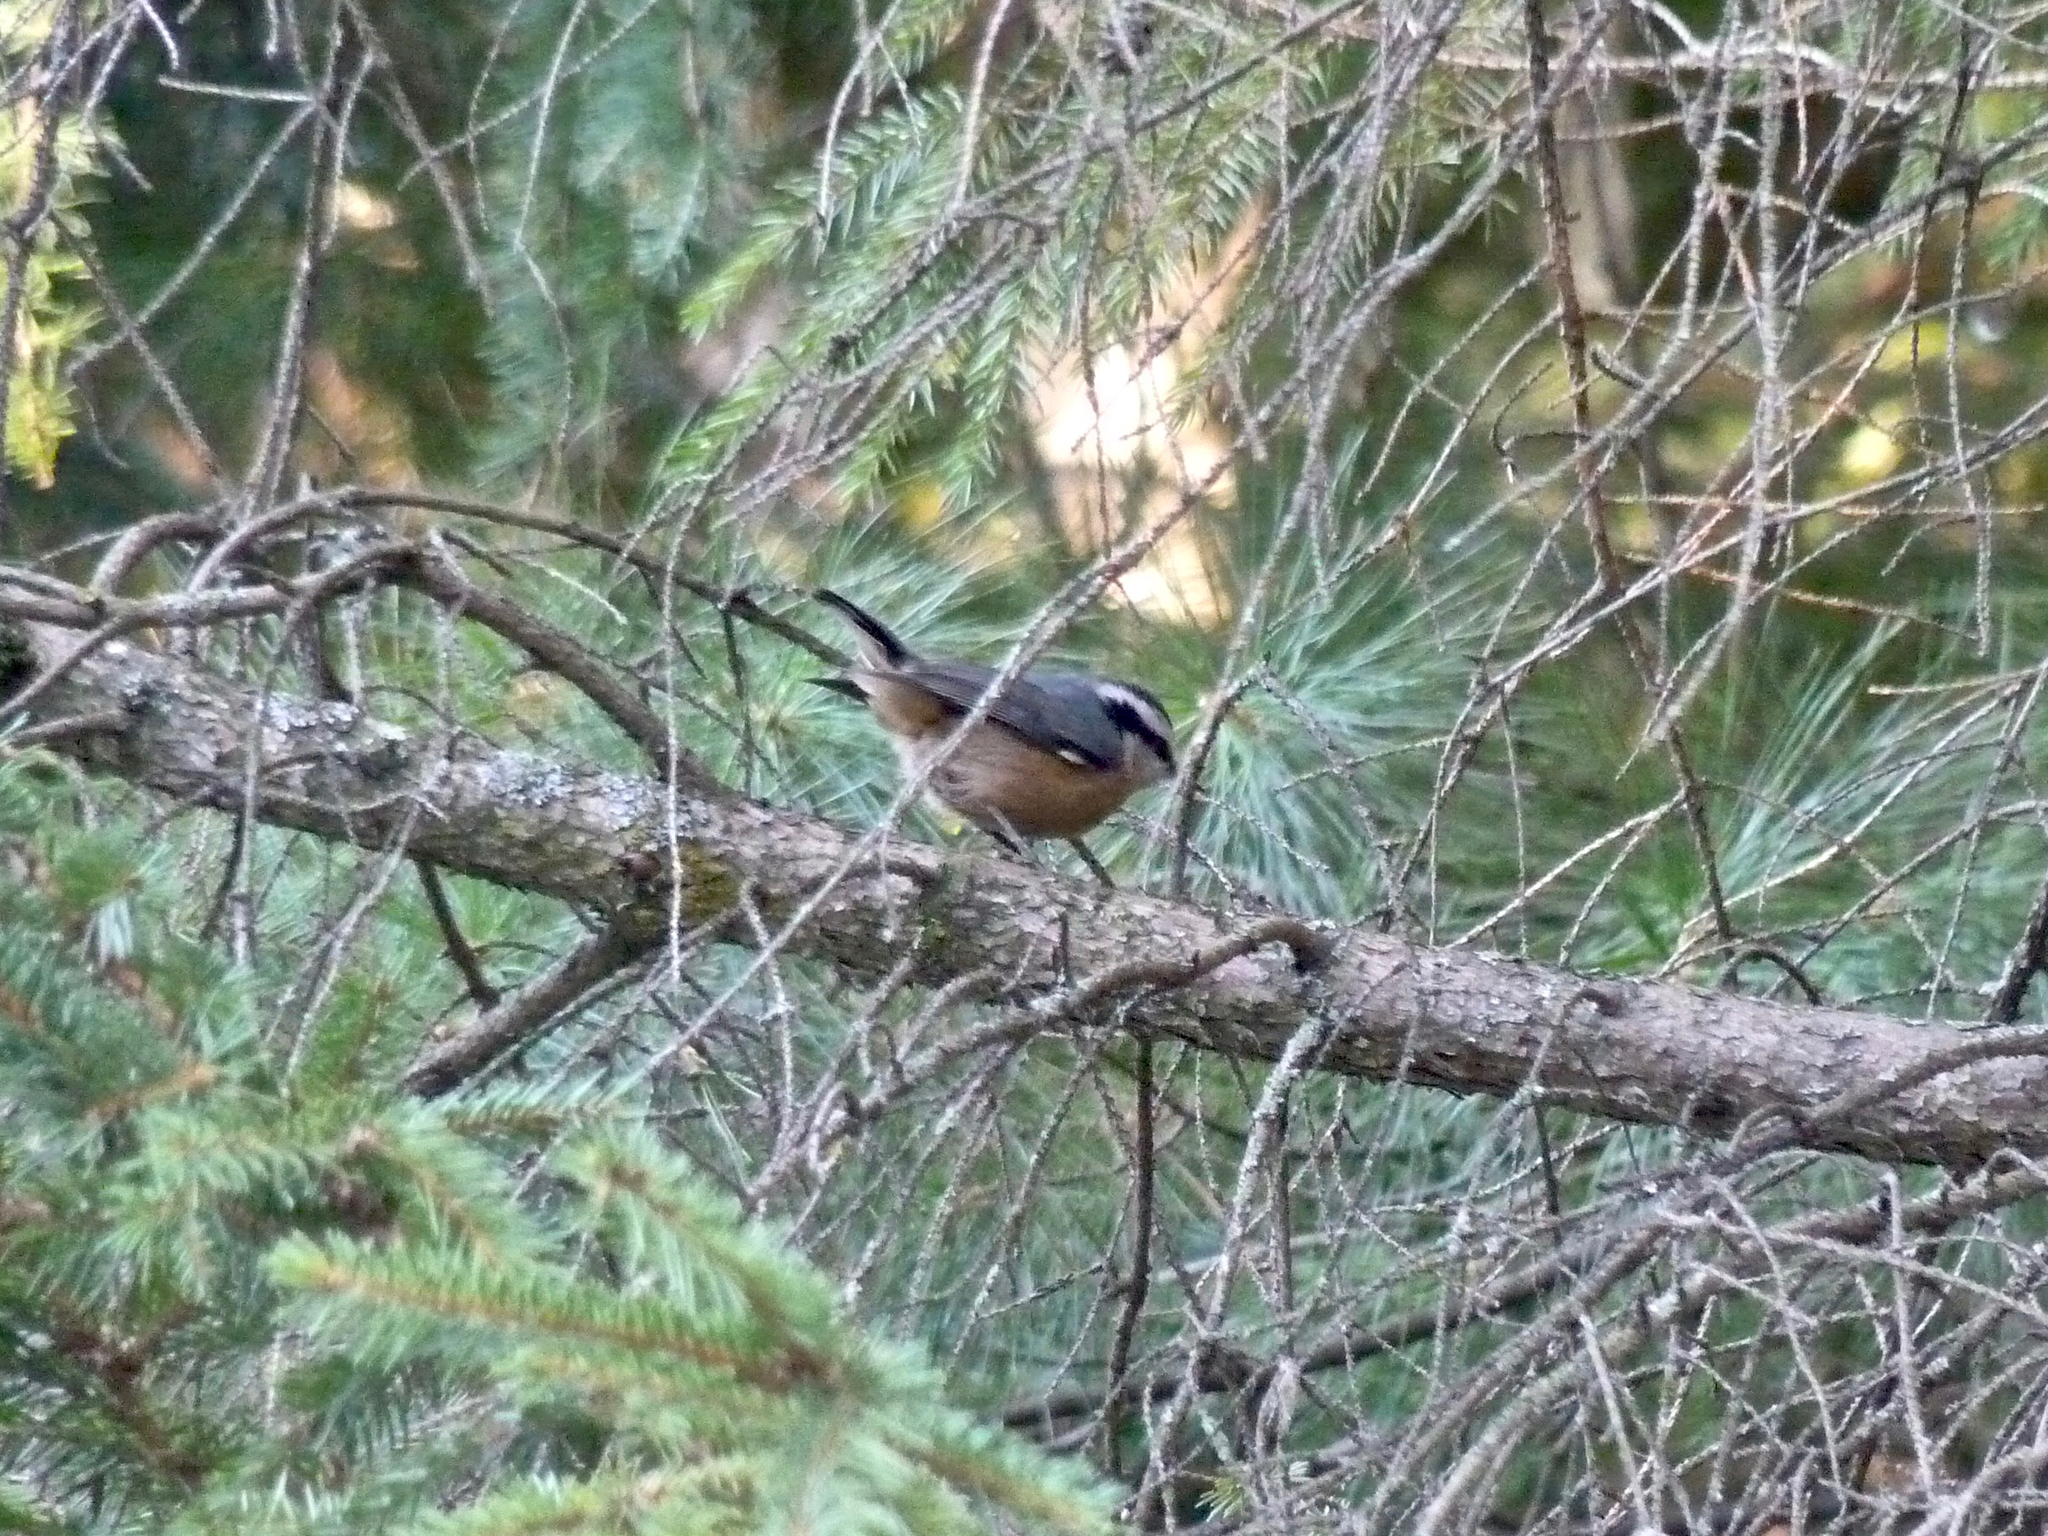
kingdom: Animalia
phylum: Chordata
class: Aves
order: Passeriformes
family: Sittidae
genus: Sitta
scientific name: Sitta canadensis
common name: Red-breasted nuthatch
